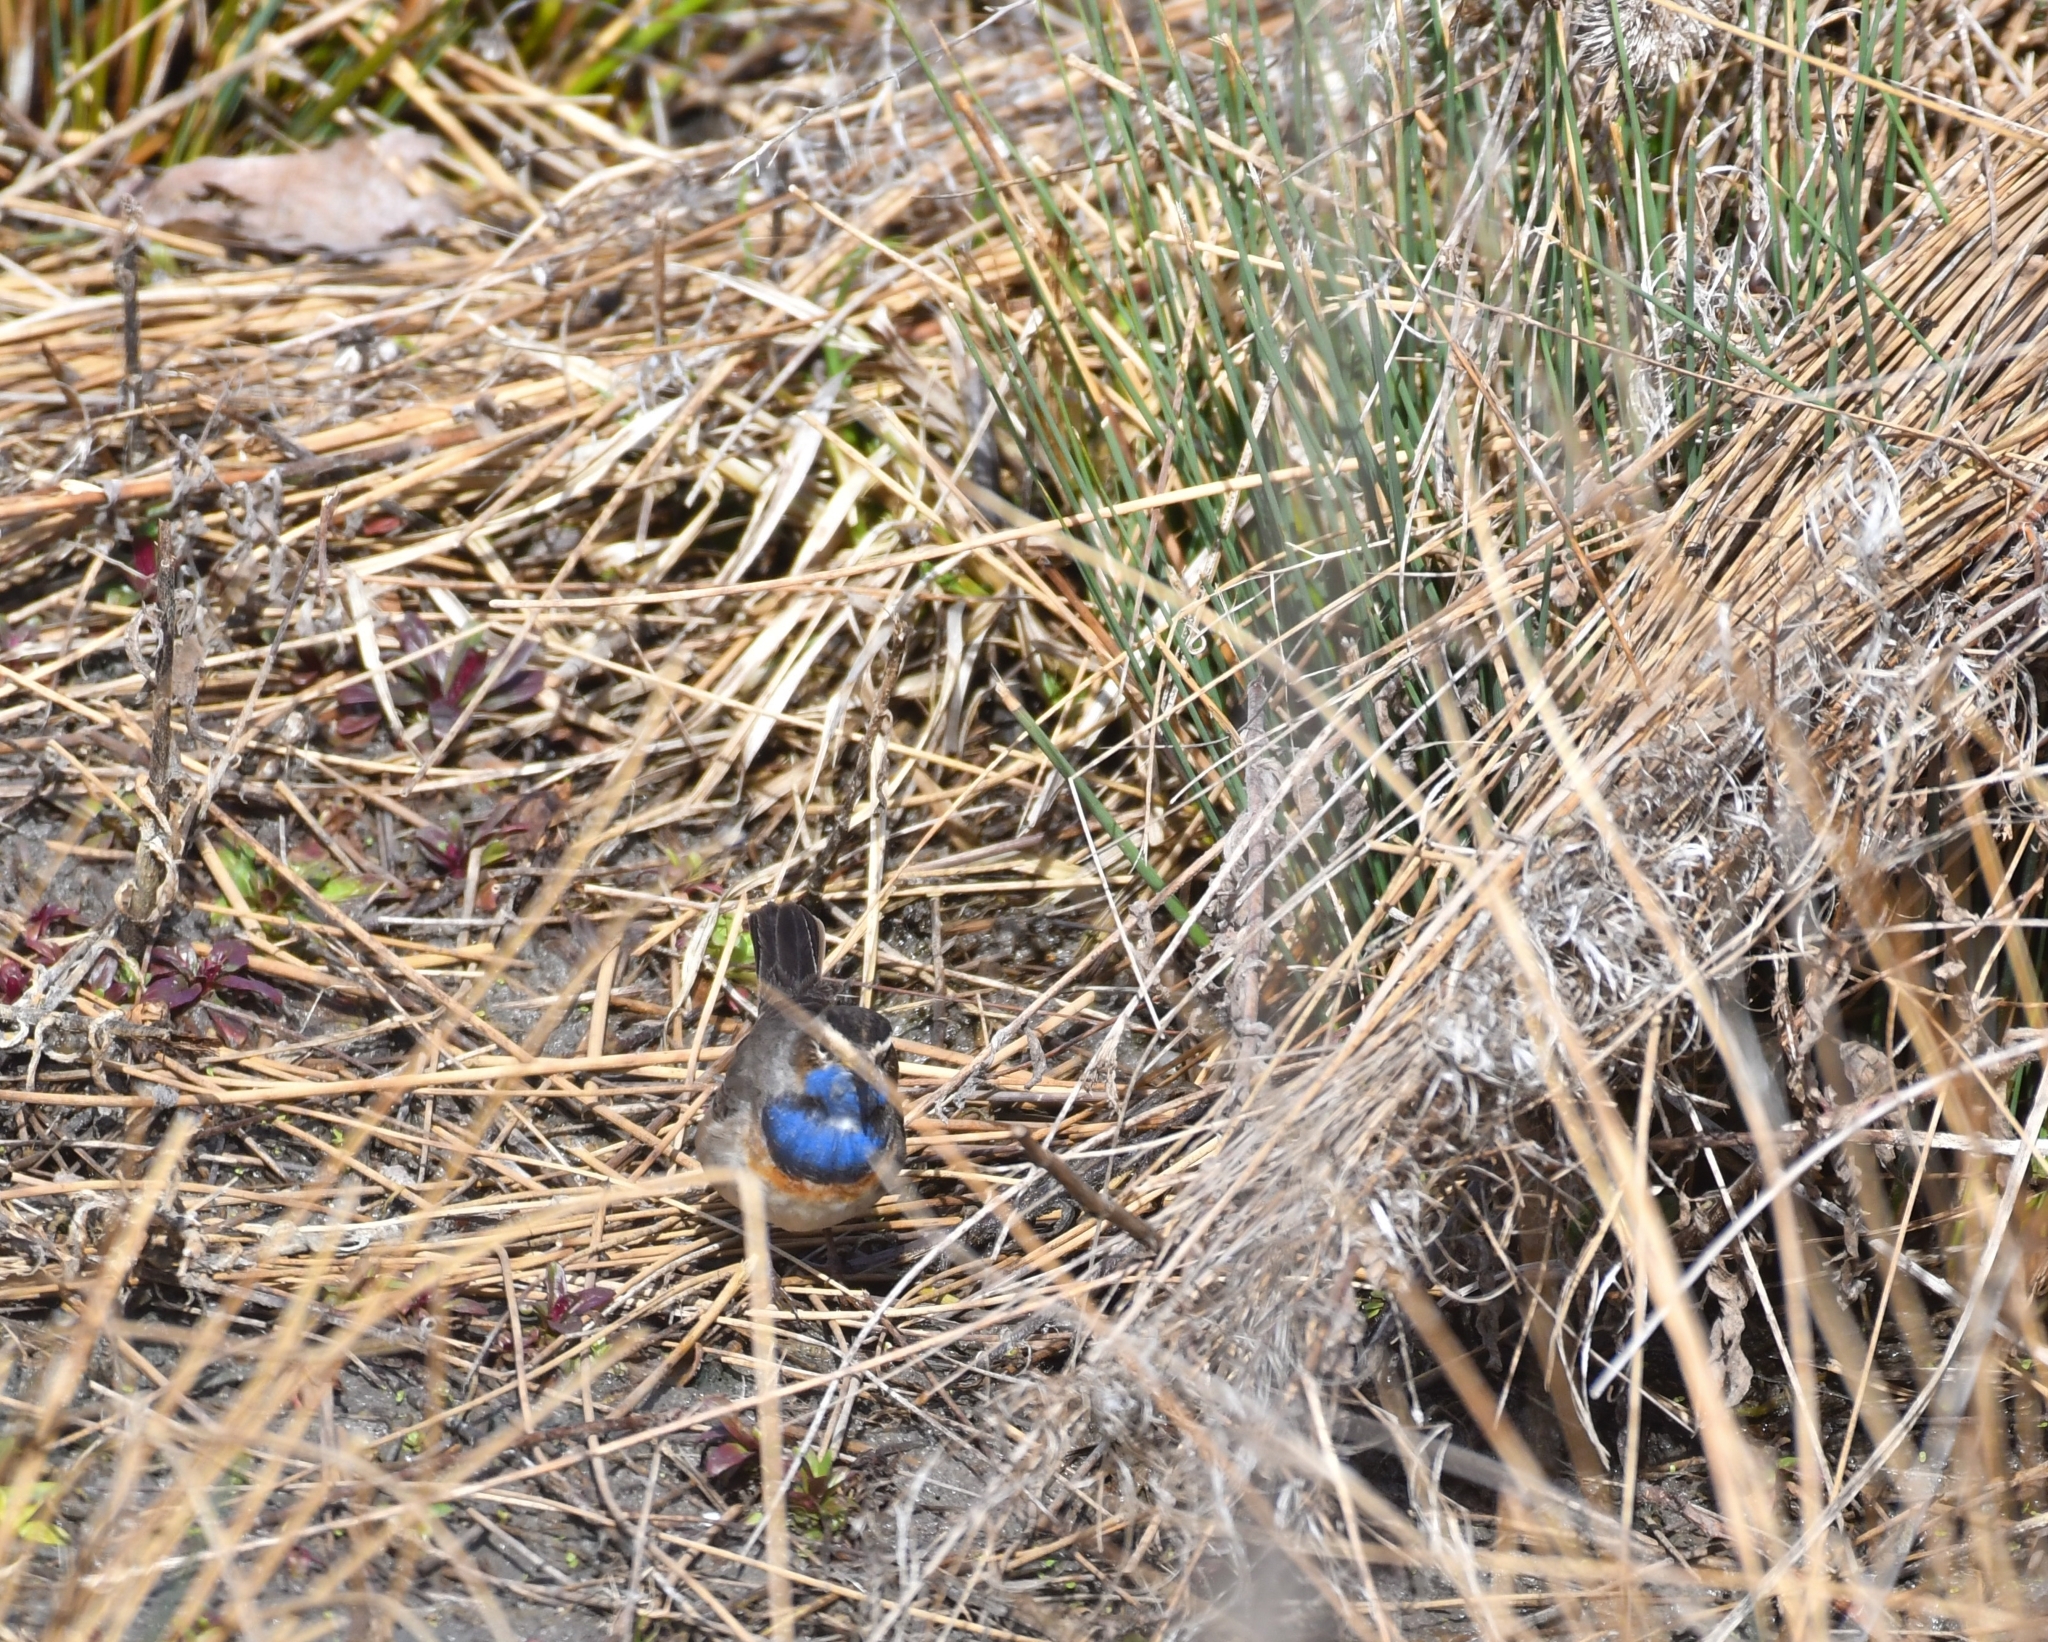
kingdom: Animalia
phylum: Chordata
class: Aves
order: Passeriformes
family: Muscicapidae
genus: Luscinia
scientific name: Luscinia svecica
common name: Bluethroat
